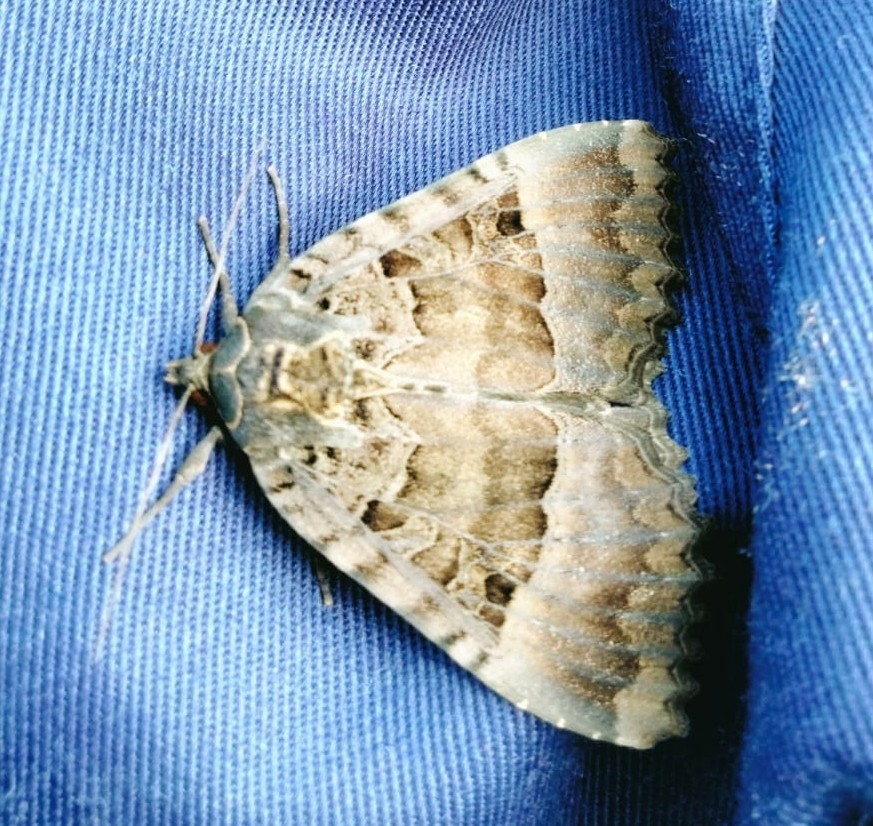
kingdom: Animalia
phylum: Arthropoda
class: Insecta
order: Lepidoptera
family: Noctuidae
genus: Mormo
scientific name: Mormo maura
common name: Old lady
